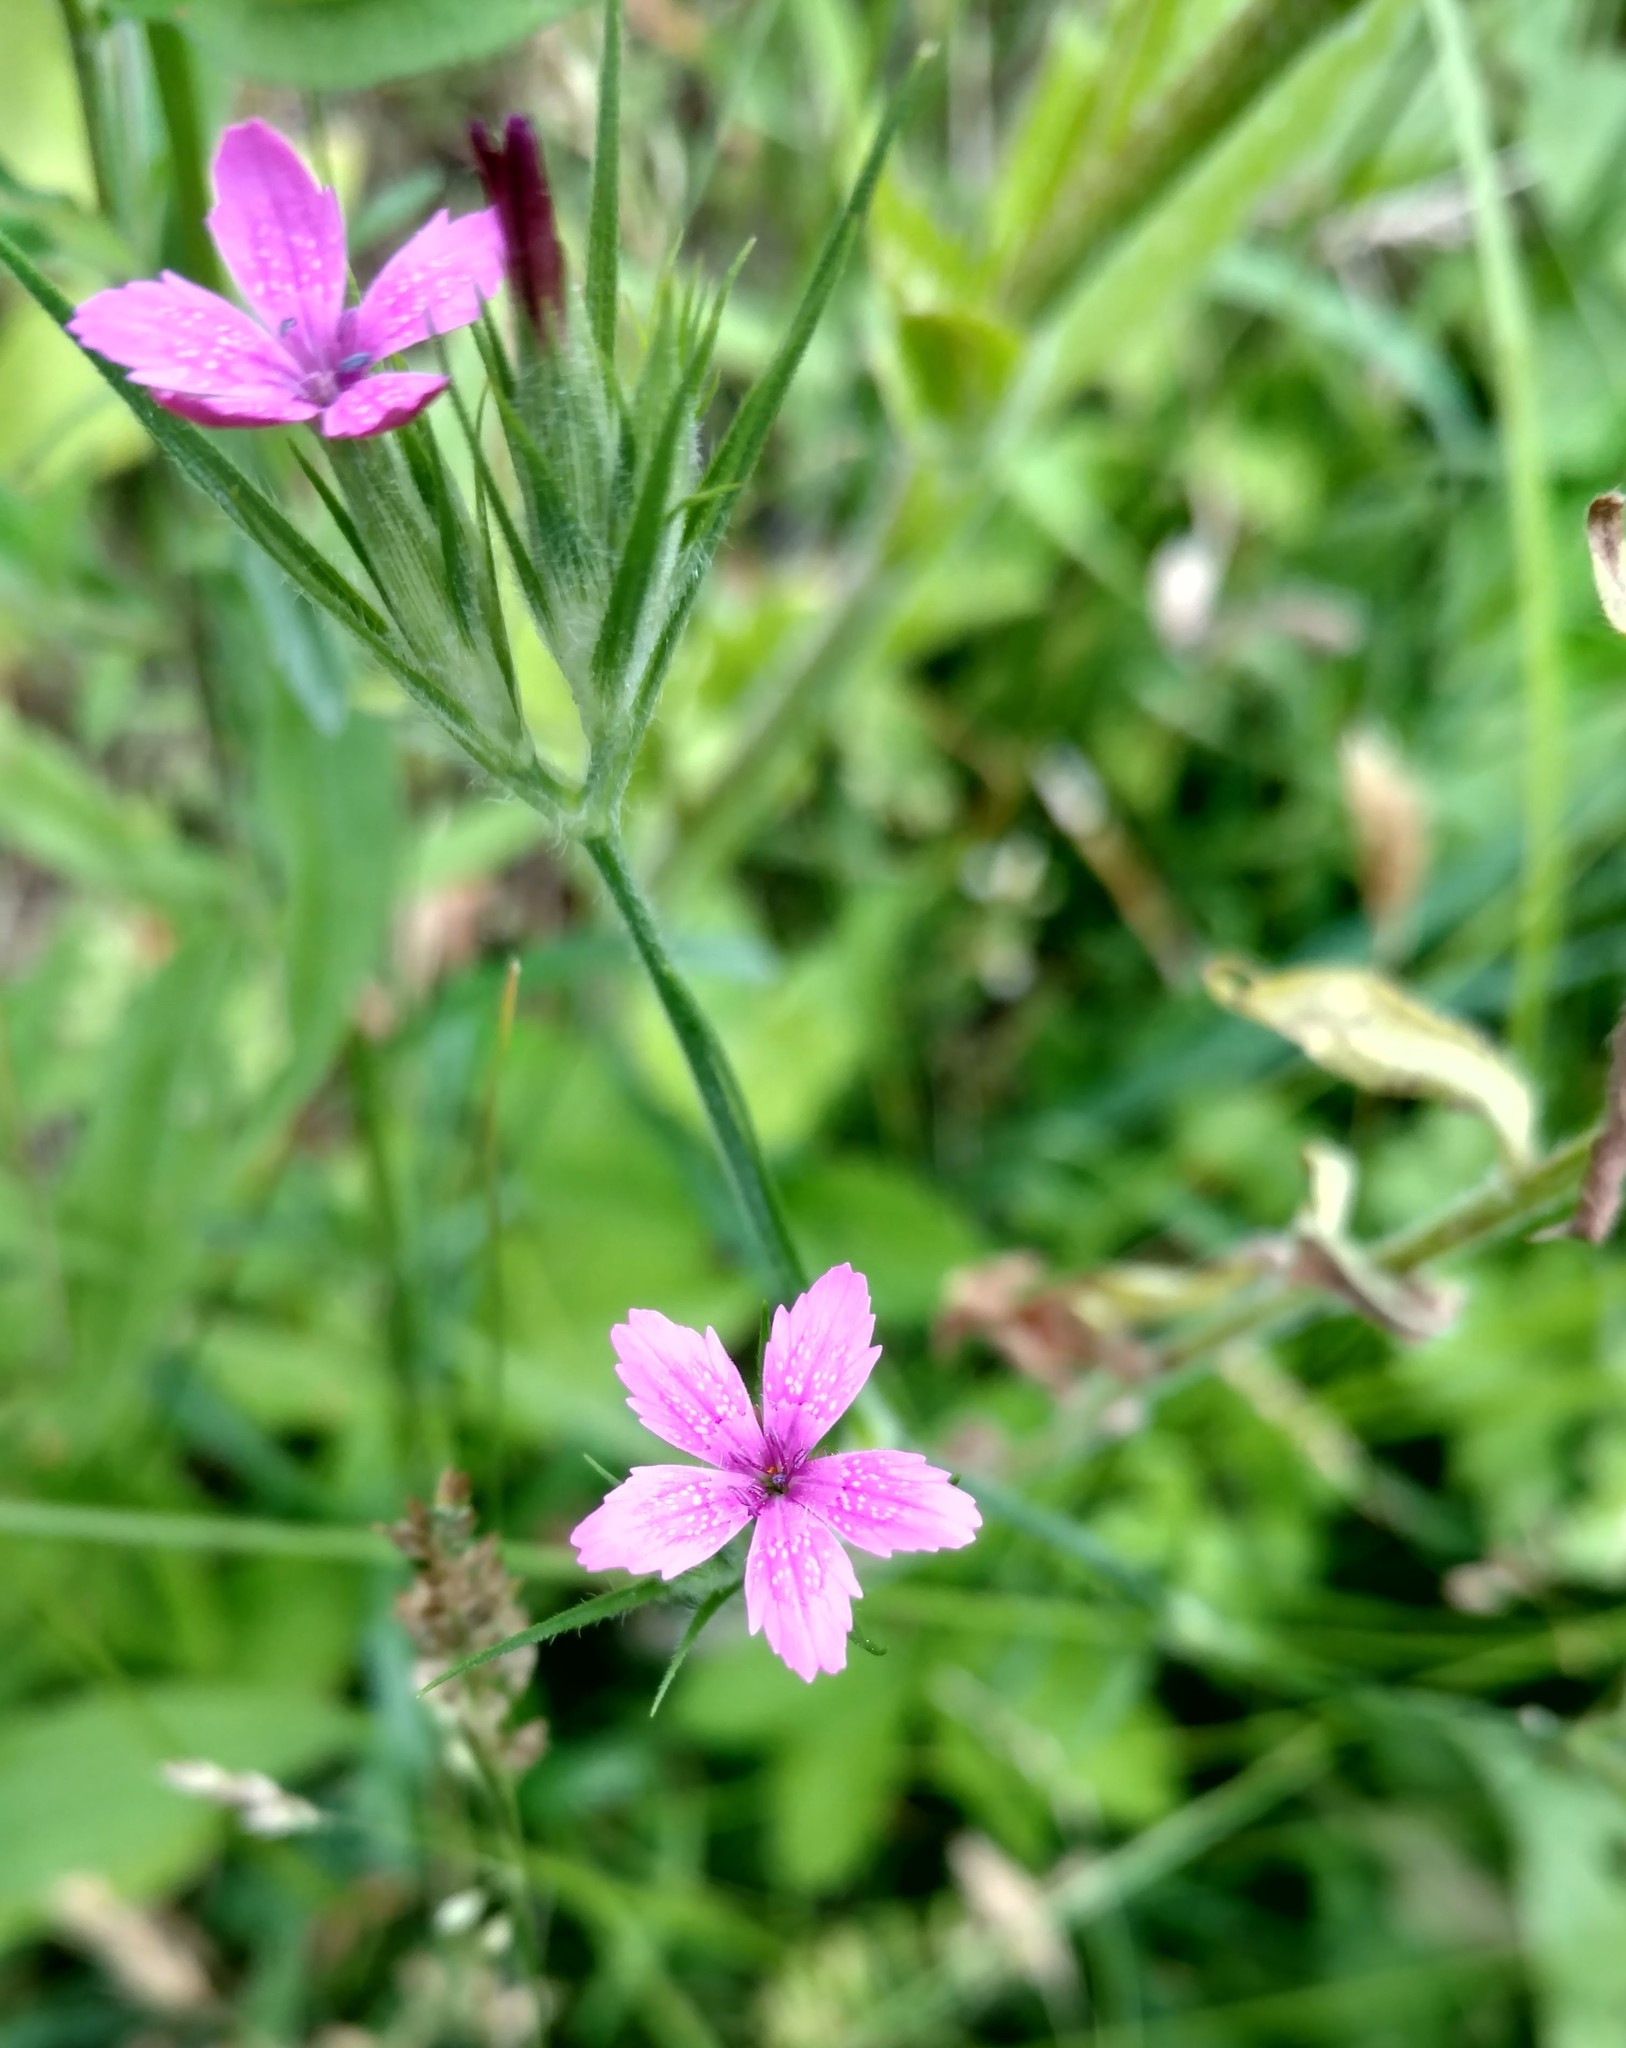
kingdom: Plantae
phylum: Tracheophyta
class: Magnoliopsida
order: Caryophyllales
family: Caryophyllaceae
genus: Dianthus
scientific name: Dianthus armeria
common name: Deptford pink
